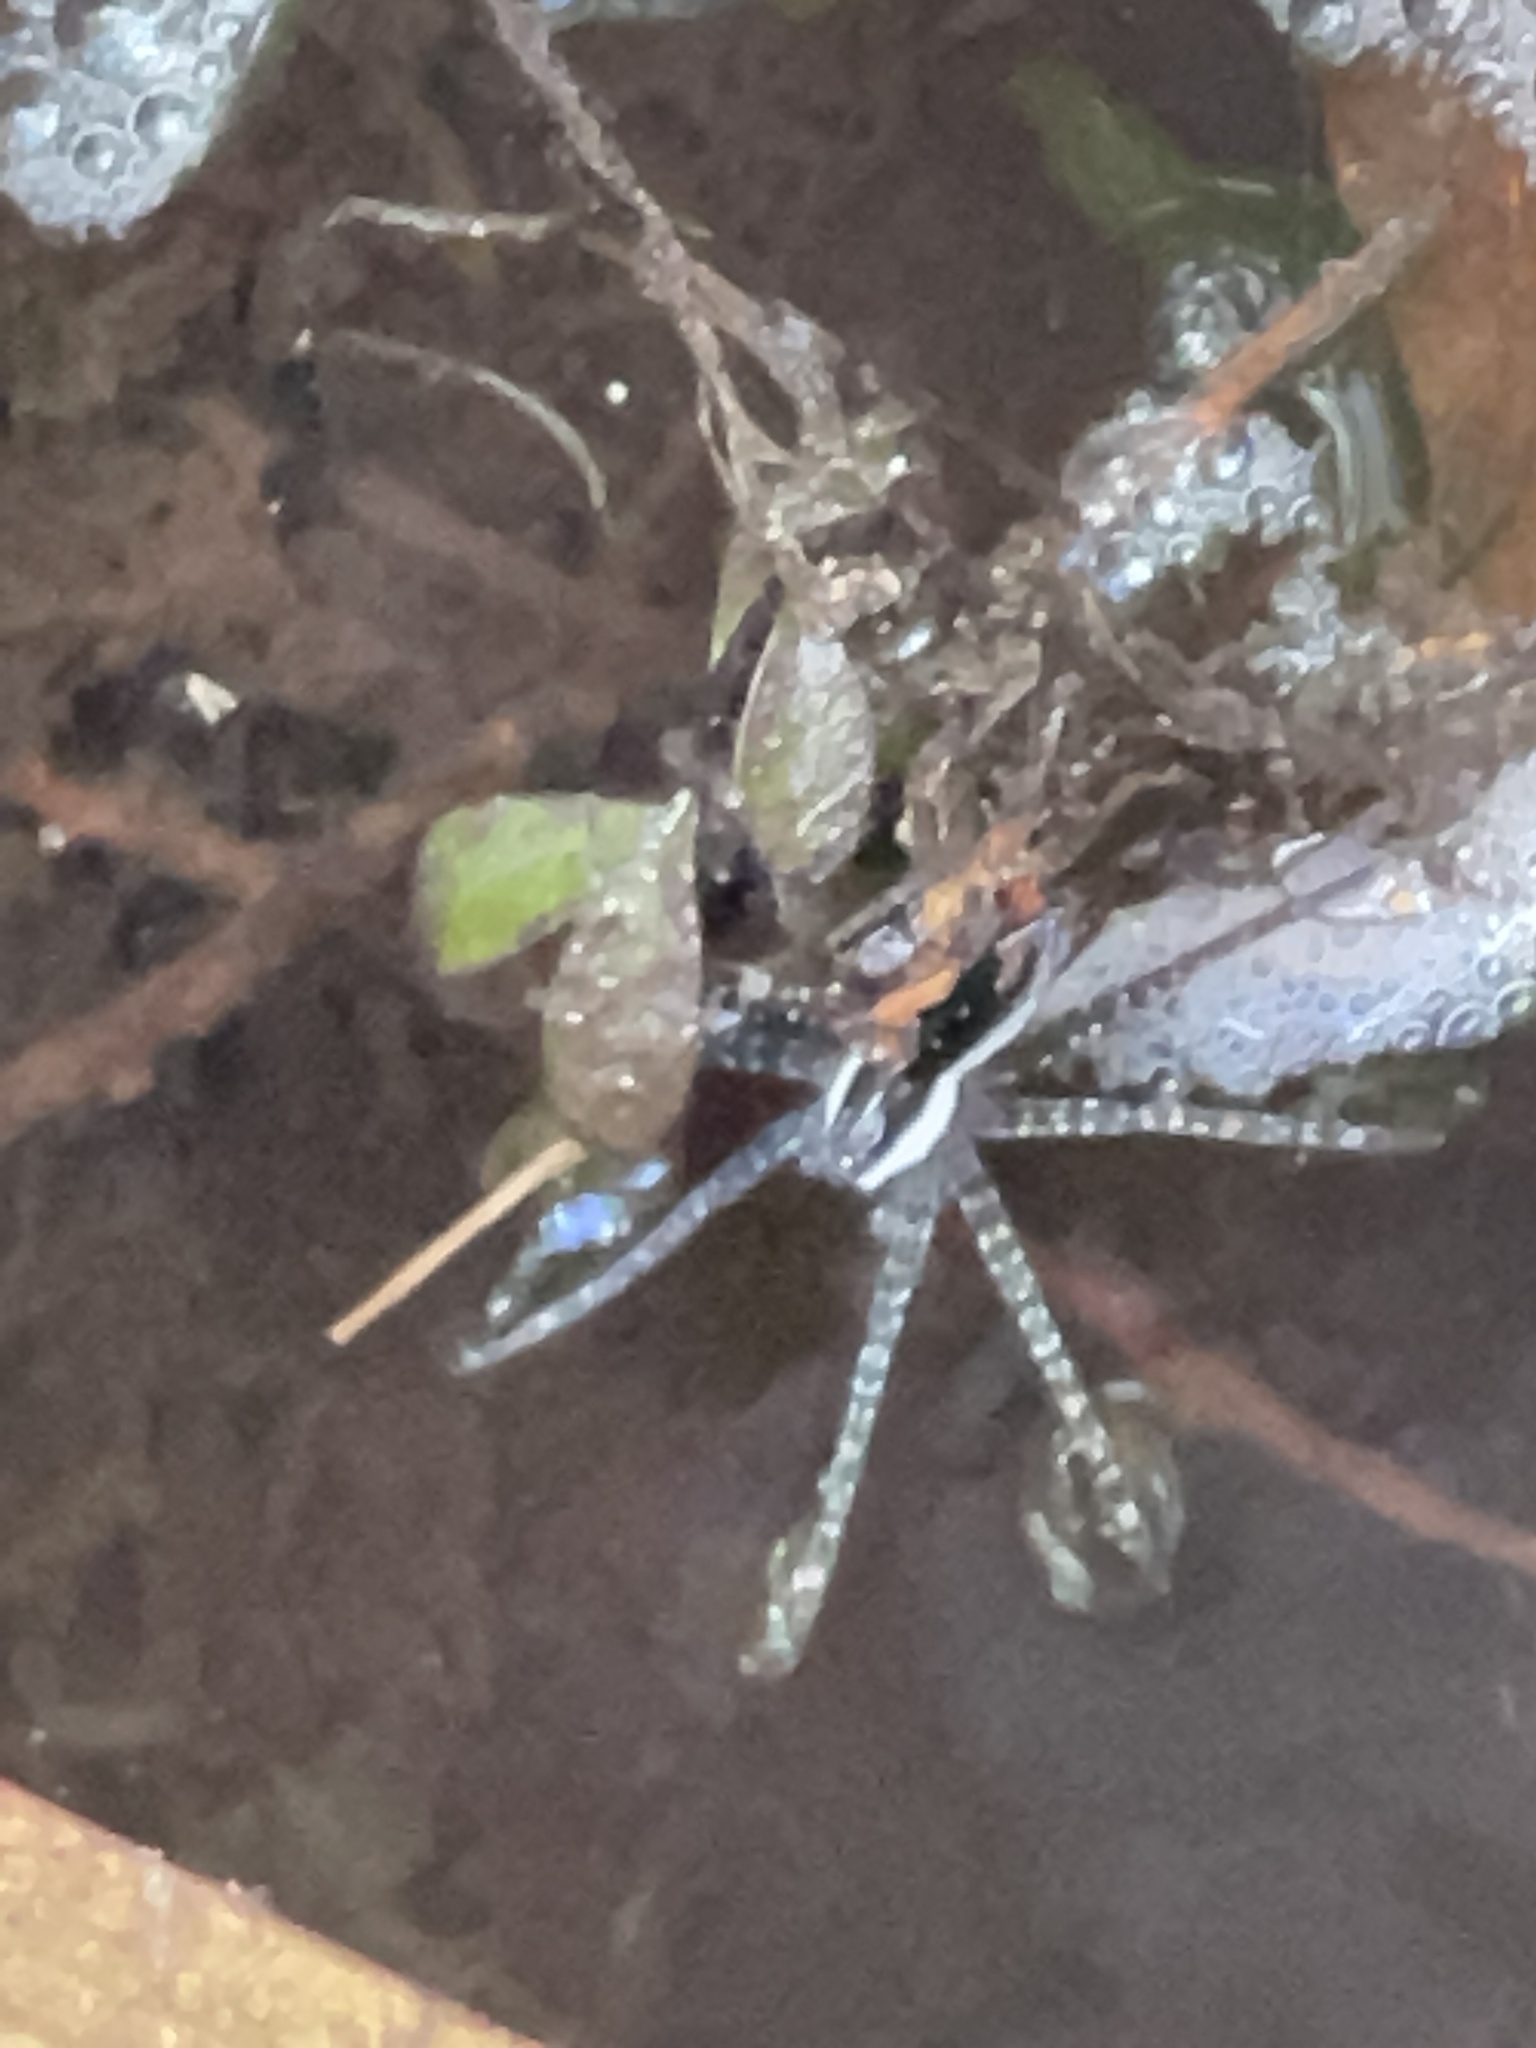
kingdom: Animalia
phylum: Arthropoda
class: Arachnida
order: Araneae
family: Pisauridae
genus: Dolomedes
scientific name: Dolomedes triton
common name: Six-spotted fishing spider
